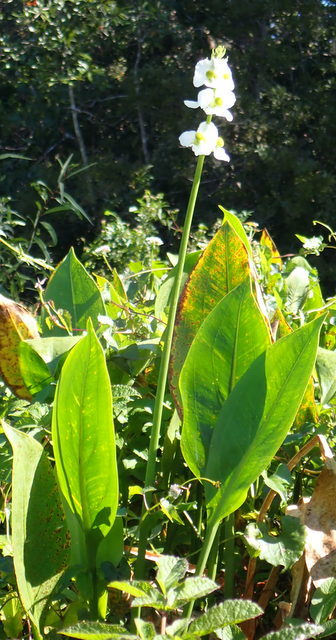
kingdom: Plantae
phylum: Tracheophyta
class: Liliopsida
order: Alismatales
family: Alismataceae
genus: Sagittaria
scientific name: Sagittaria lancifolia
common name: Lance-leaf arrowhead
